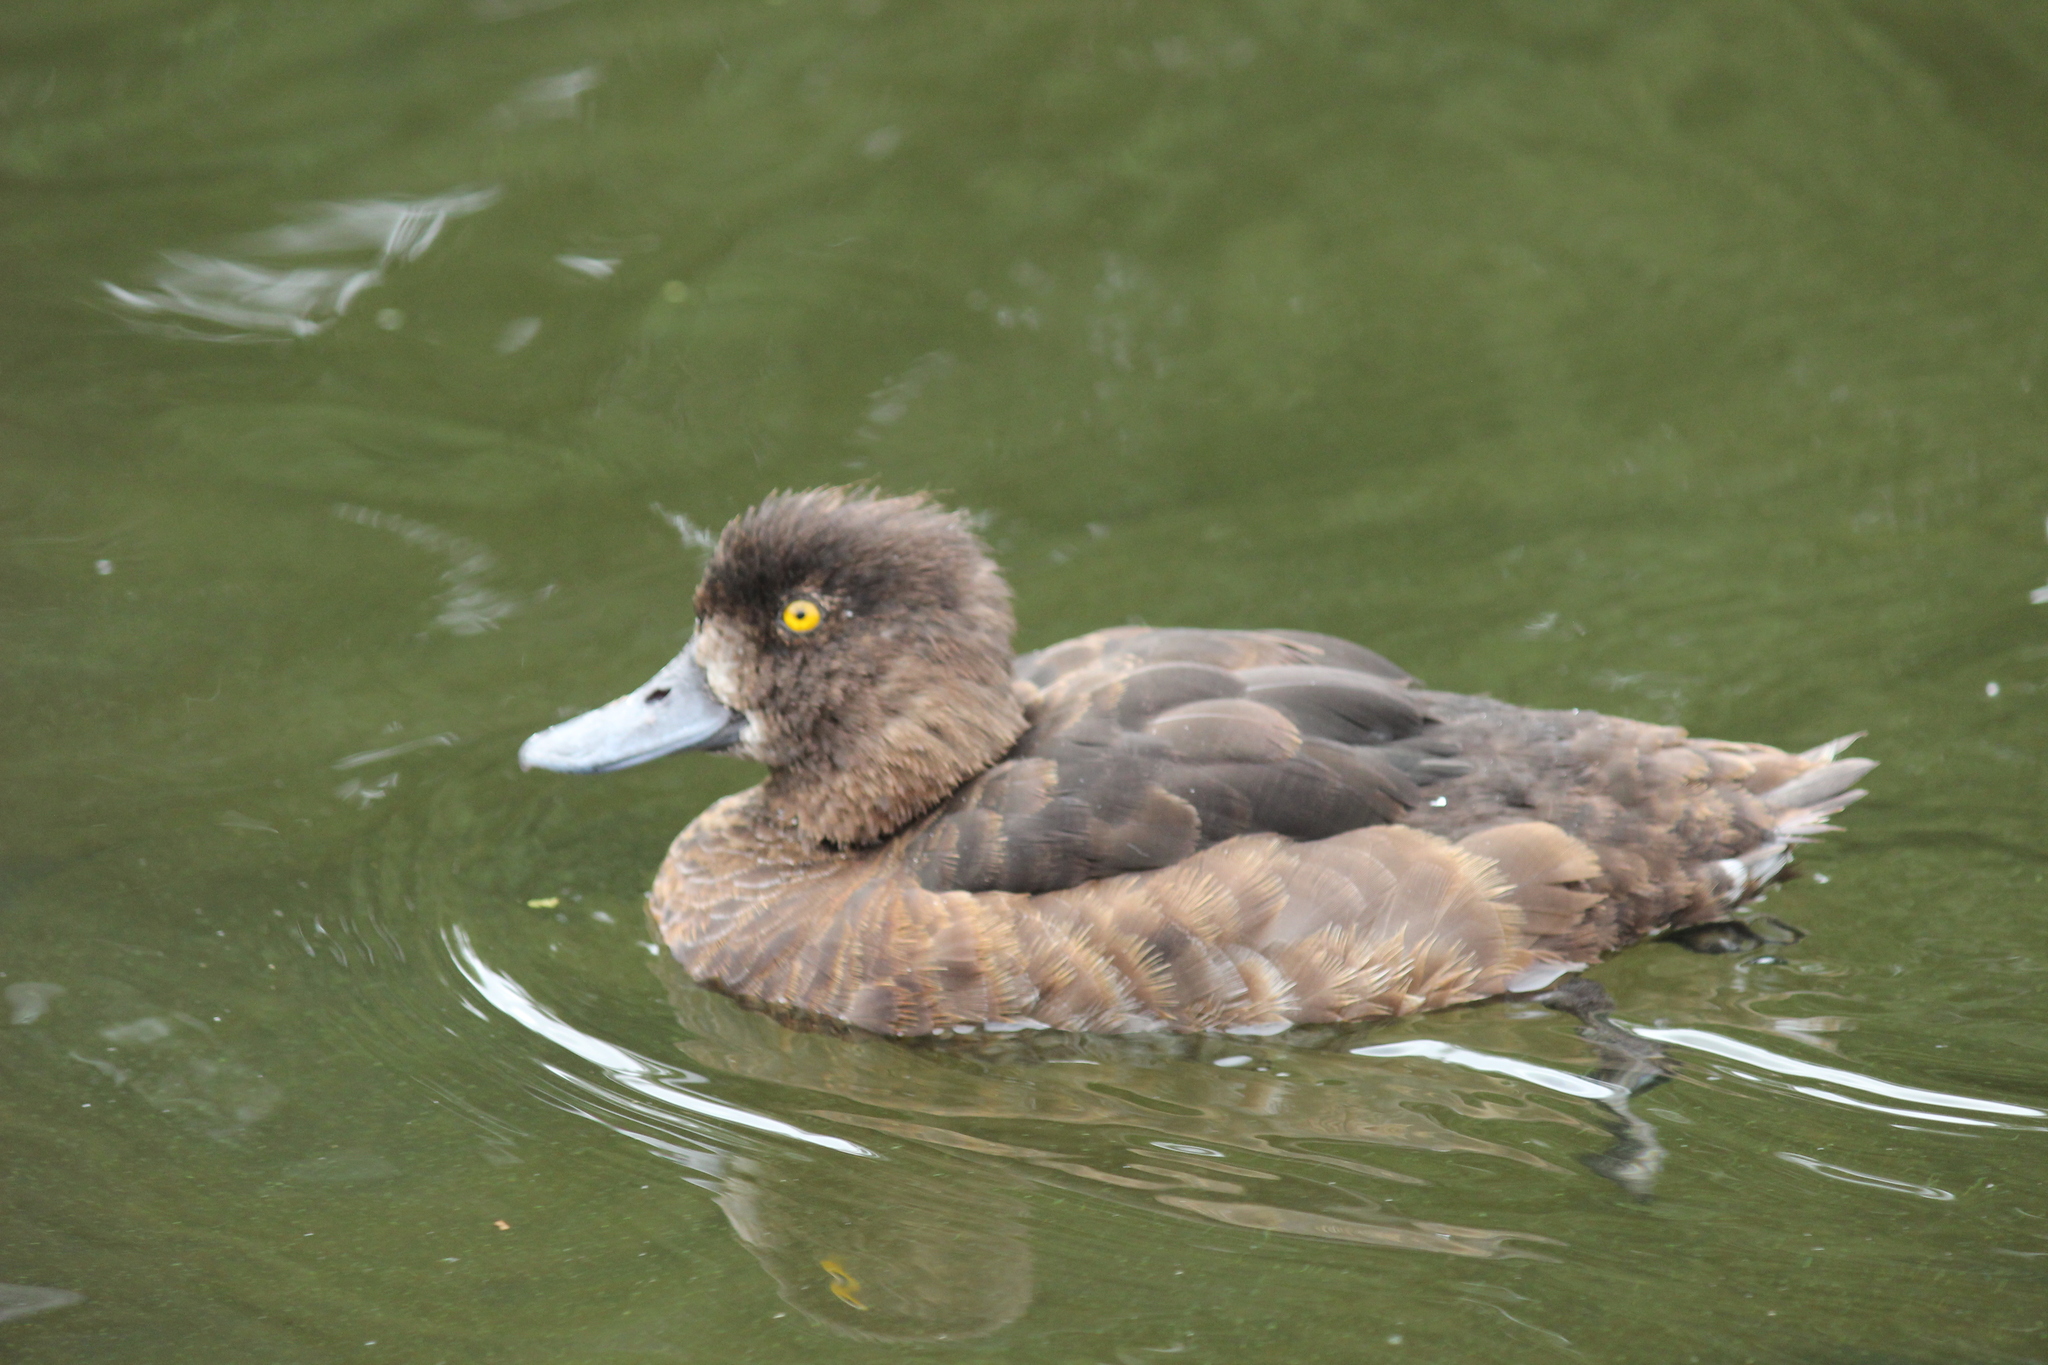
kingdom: Animalia
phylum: Chordata
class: Aves
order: Anseriformes
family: Anatidae
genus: Aythya
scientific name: Aythya fuligula
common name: Tufted duck
